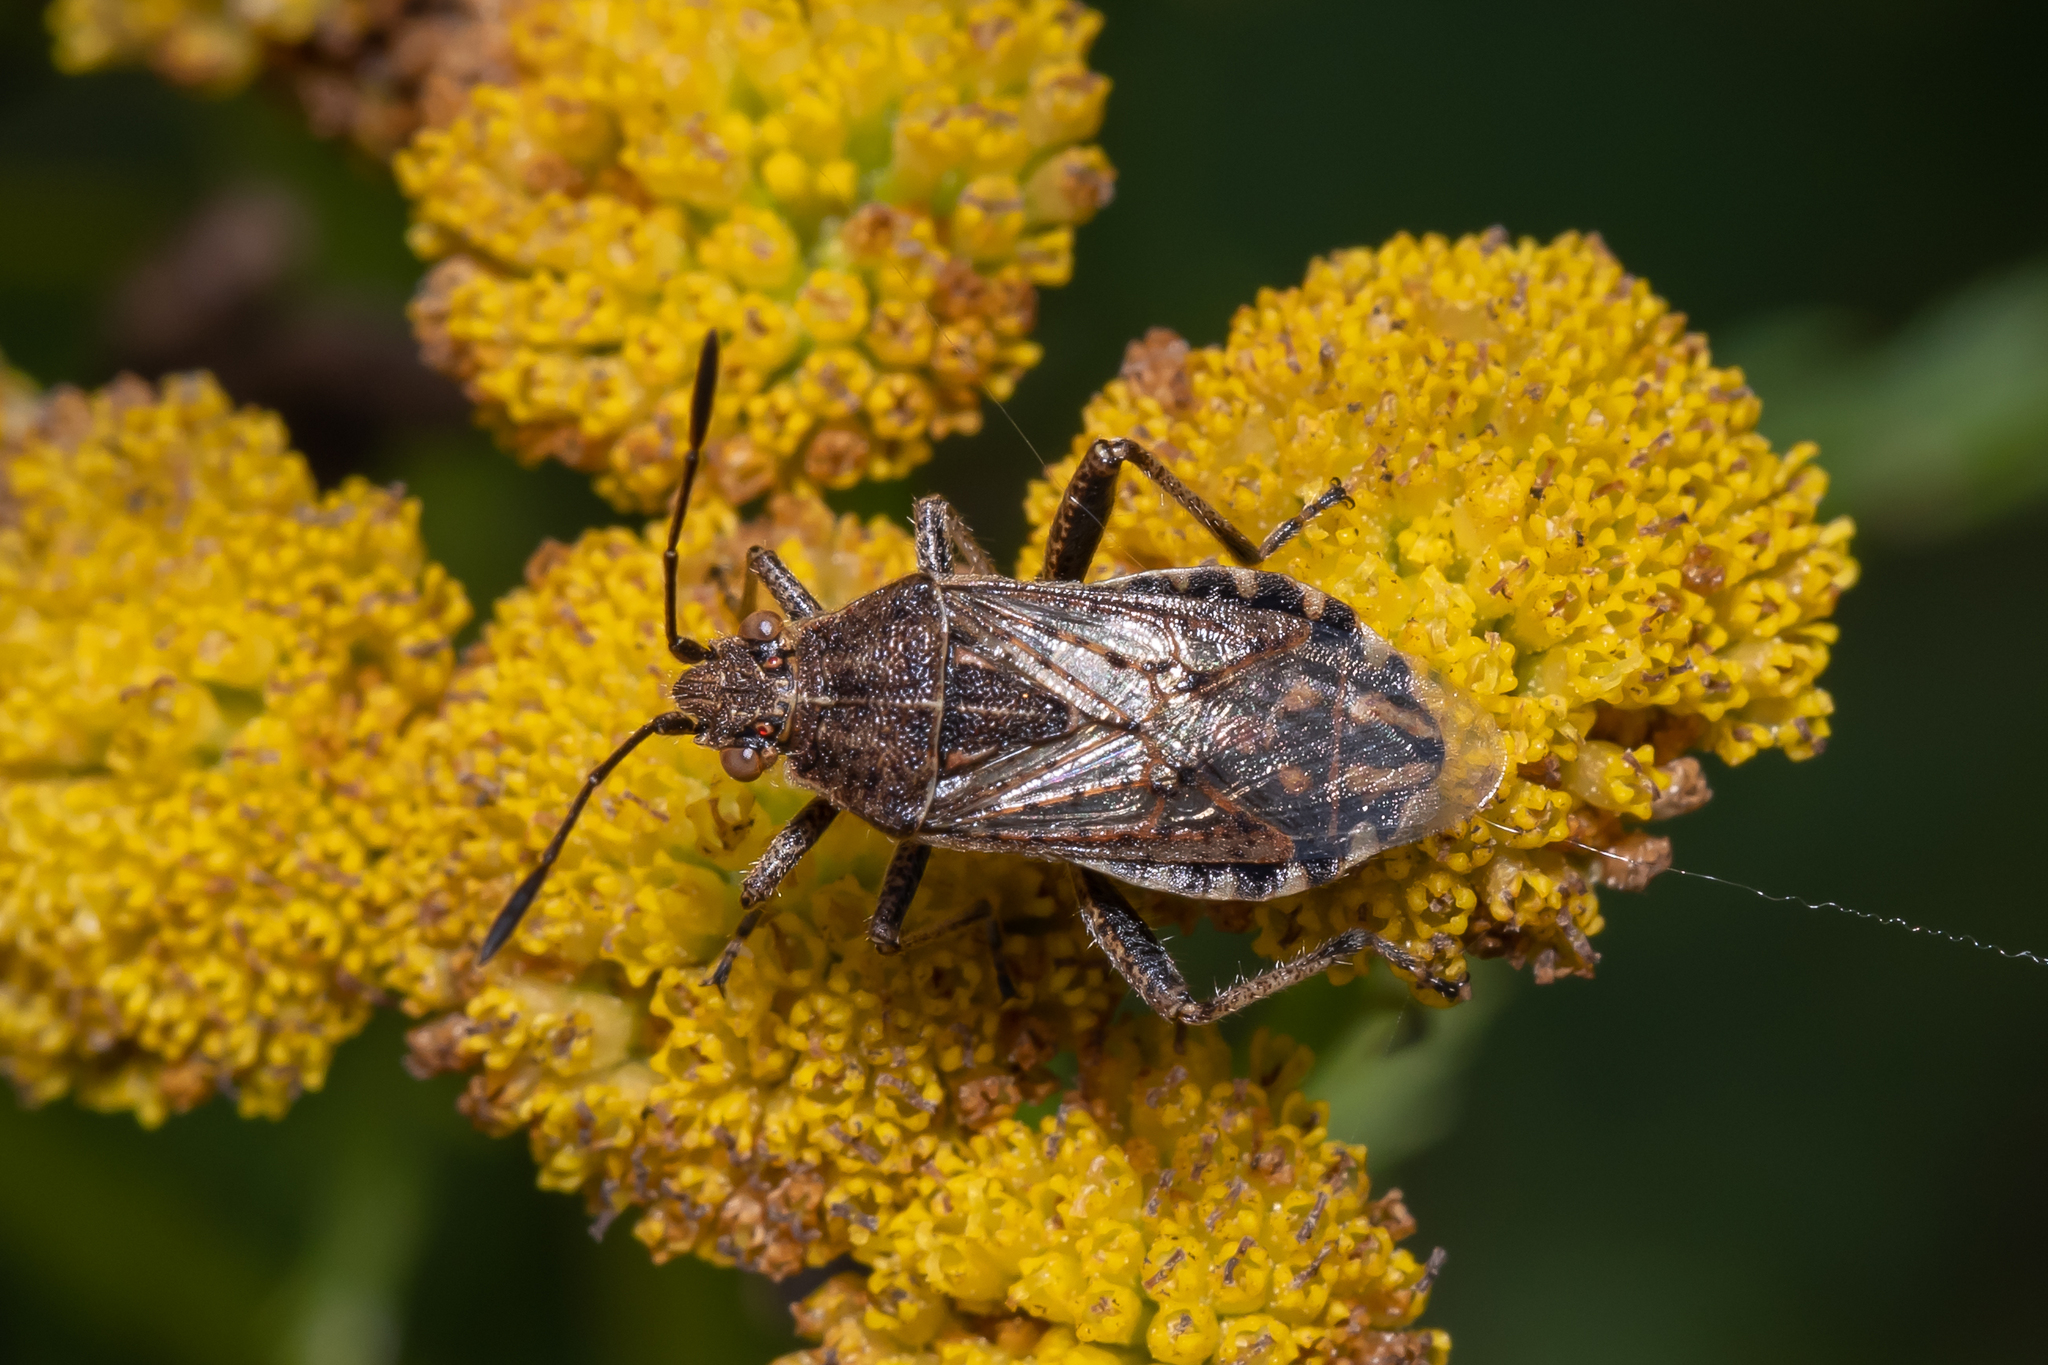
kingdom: Animalia
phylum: Arthropoda
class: Insecta
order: Hemiptera
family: Rhopalidae
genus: Stictopleurus
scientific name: Stictopleurus punctatonervosus
